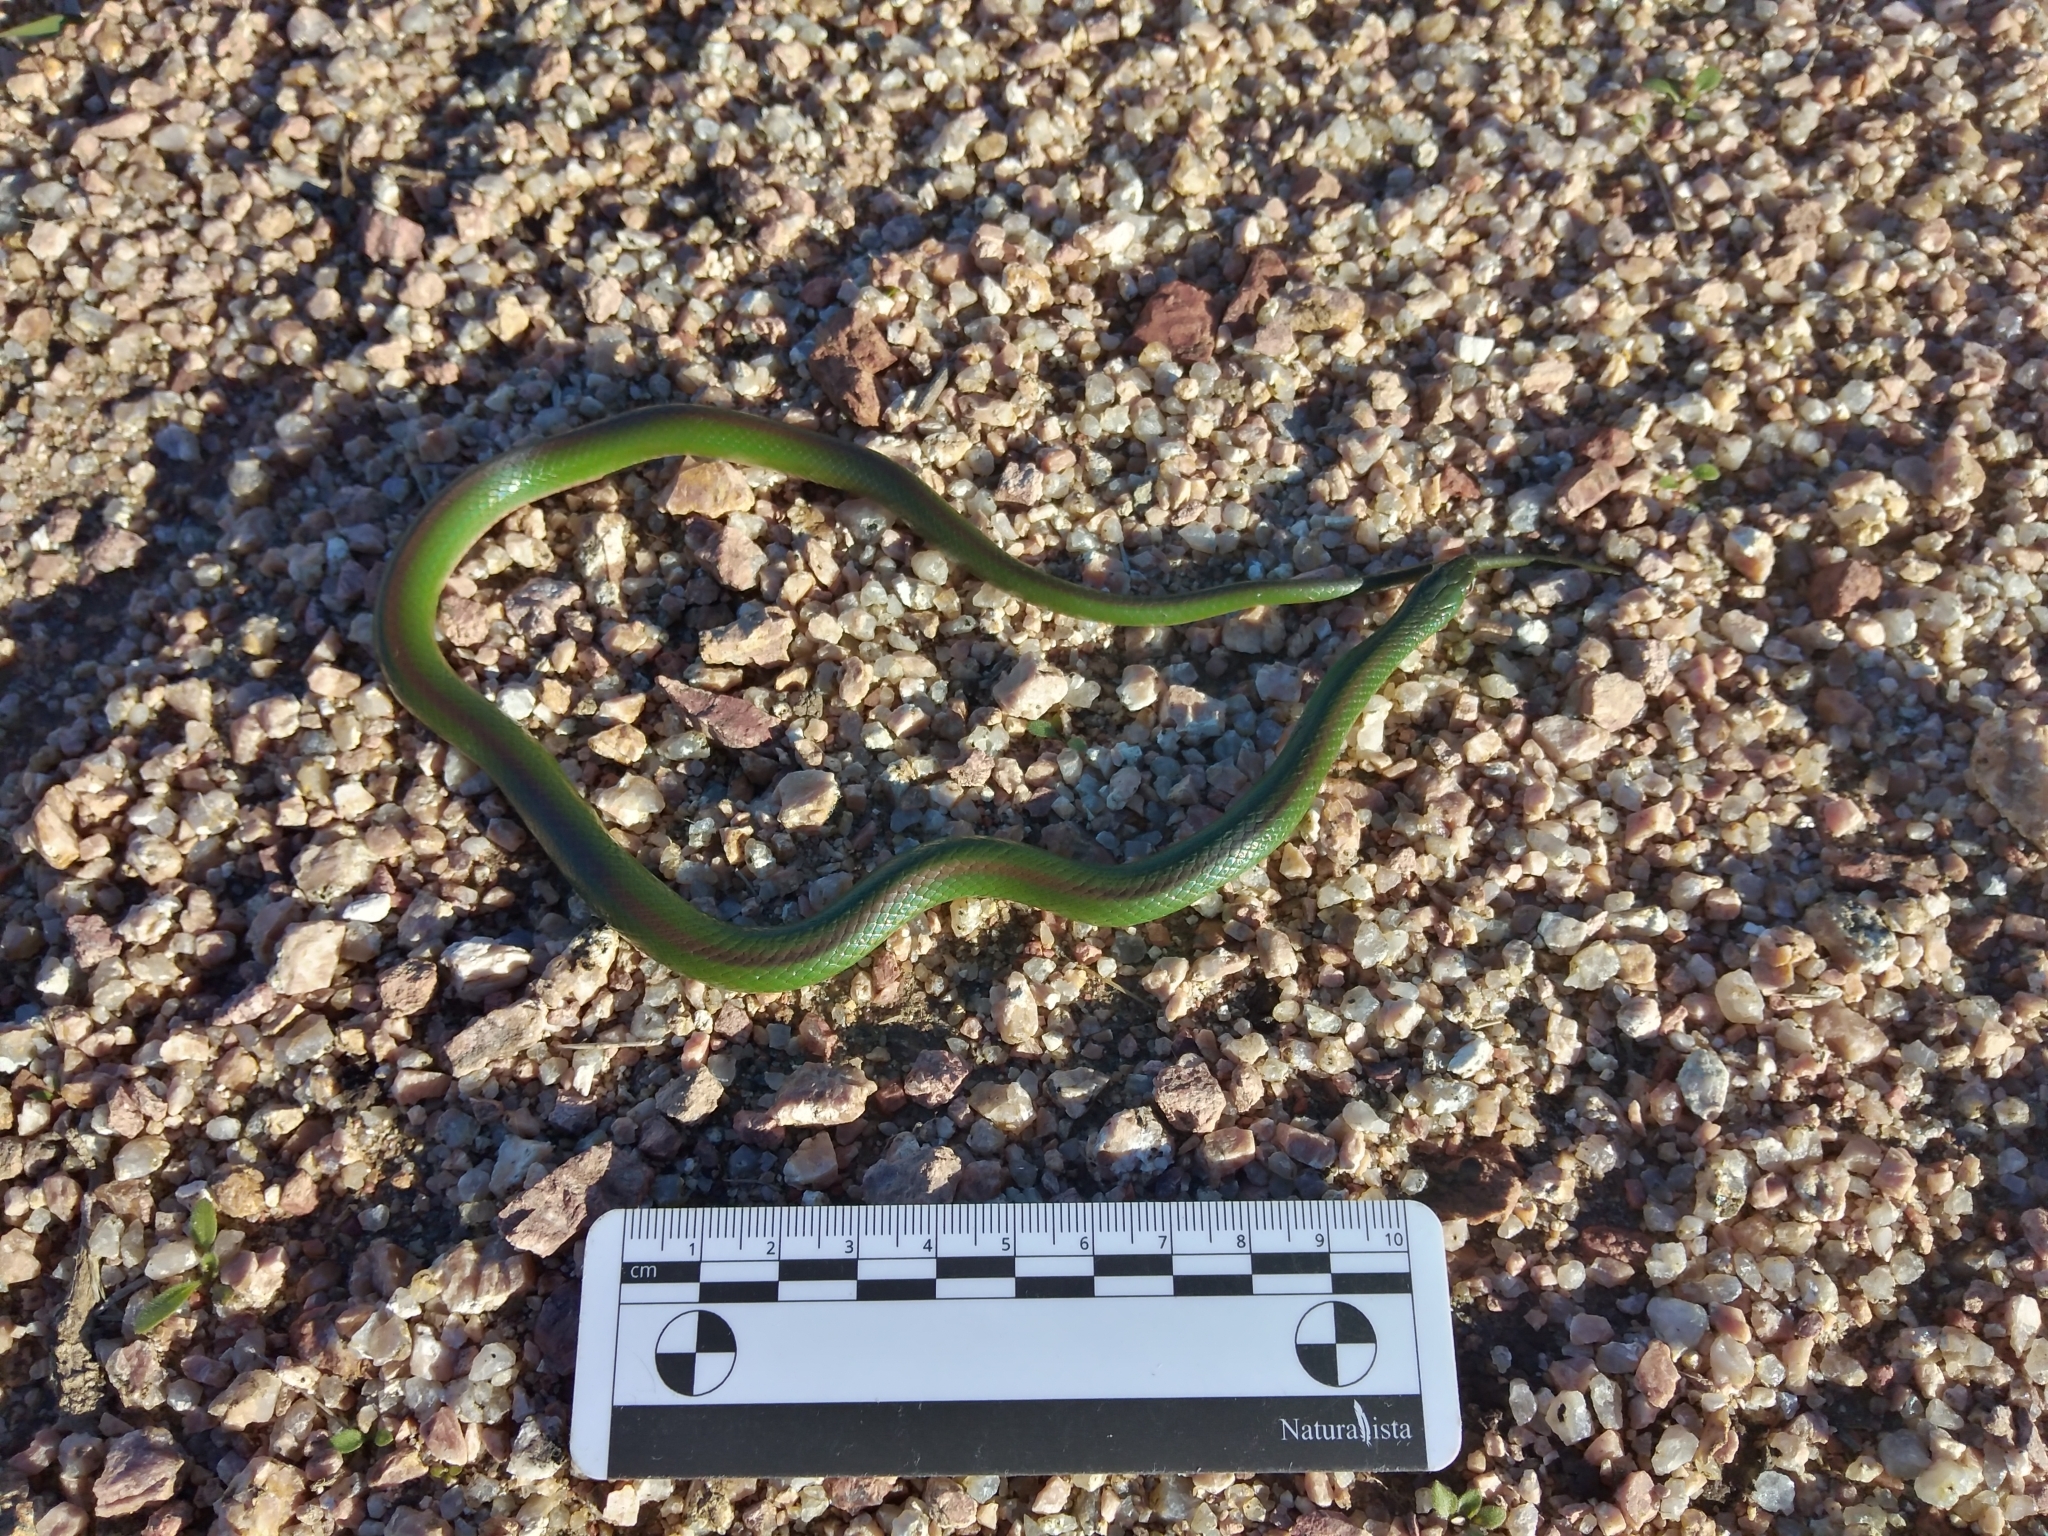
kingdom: Animalia
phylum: Chordata
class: Squamata
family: Colubridae
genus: Erythrolamprus
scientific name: Erythrolamprus jaegeri
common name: Jaeger's ground snake
